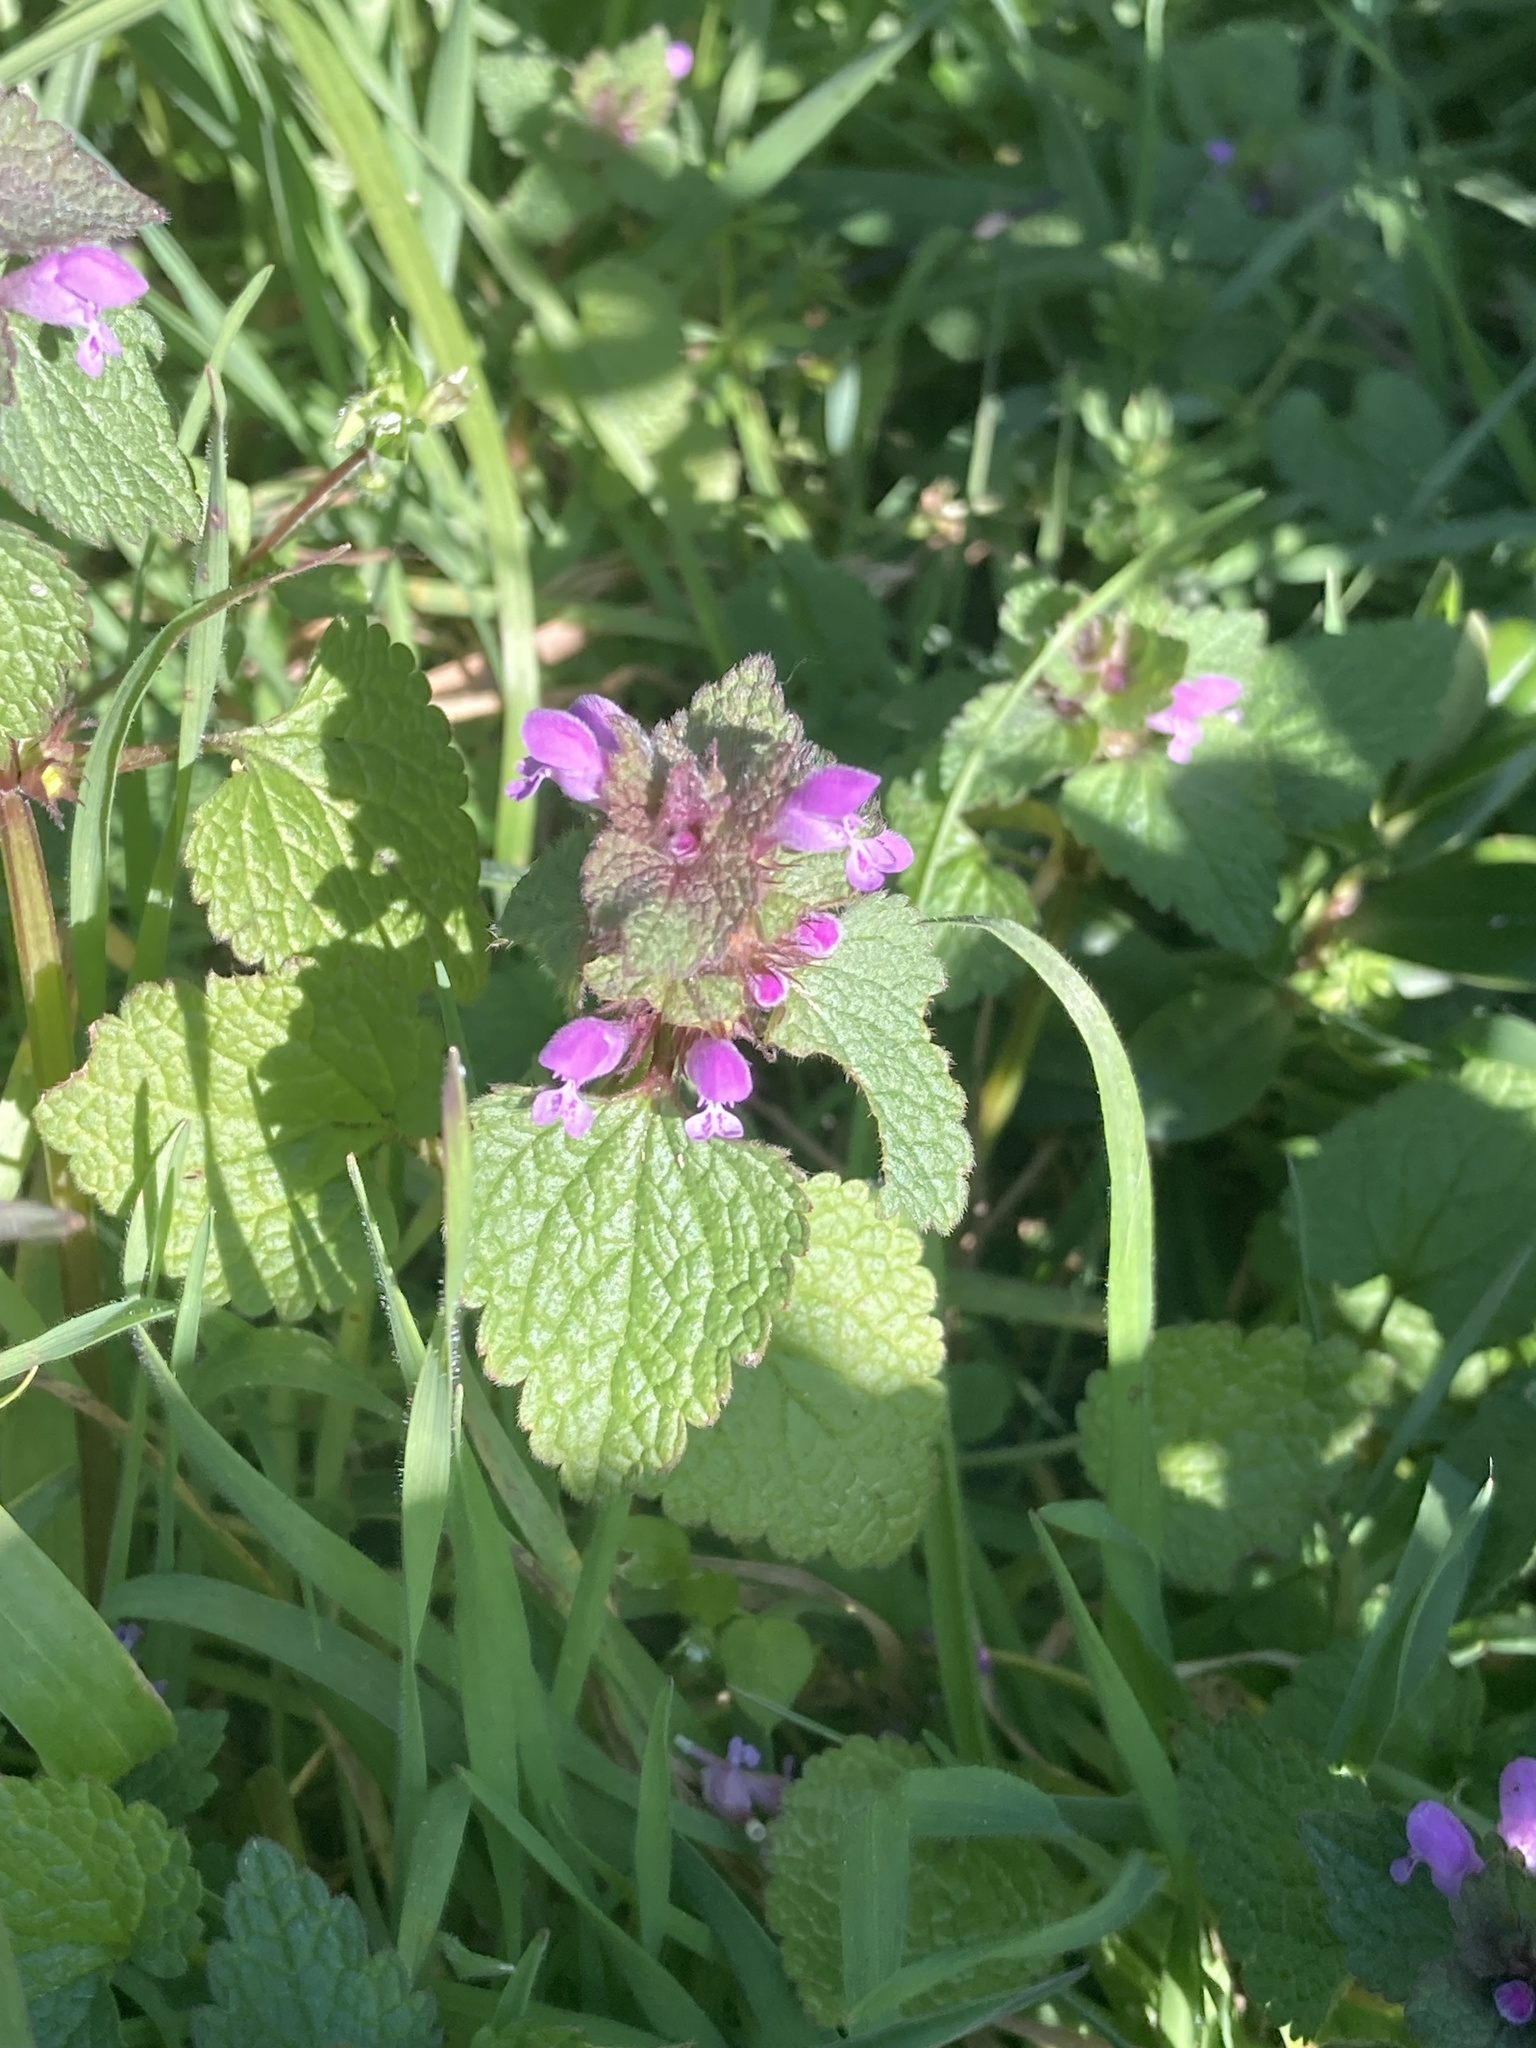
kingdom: Plantae
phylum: Tracheophyta
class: Magnoliopsida
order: Lamiales
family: Lamiaceae
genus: Lamium
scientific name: Lamium purpureum
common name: Red dead-nettle
